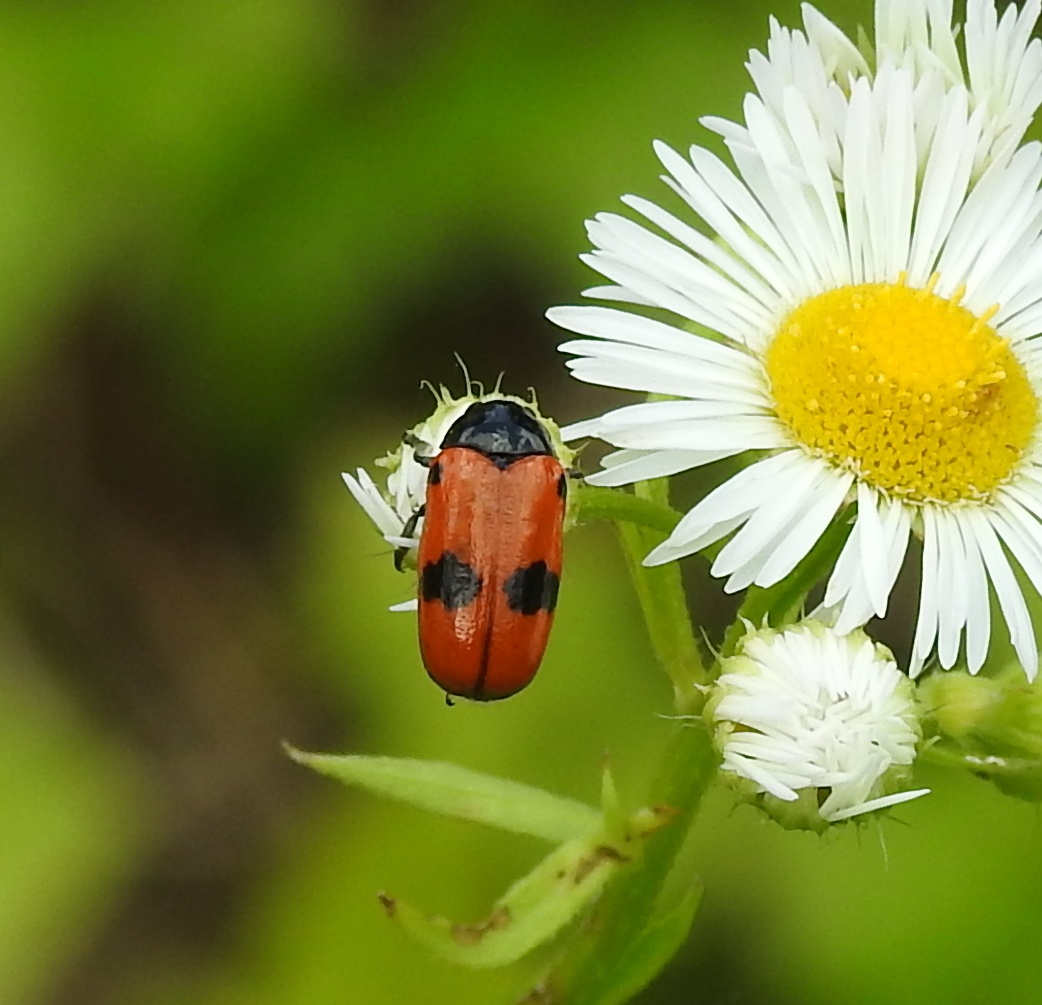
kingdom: Animalia
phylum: Arthropoda
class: Insecta
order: Coleoptera
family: Chrysomelidae
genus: Clytra
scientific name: Clytra laeviuscula
